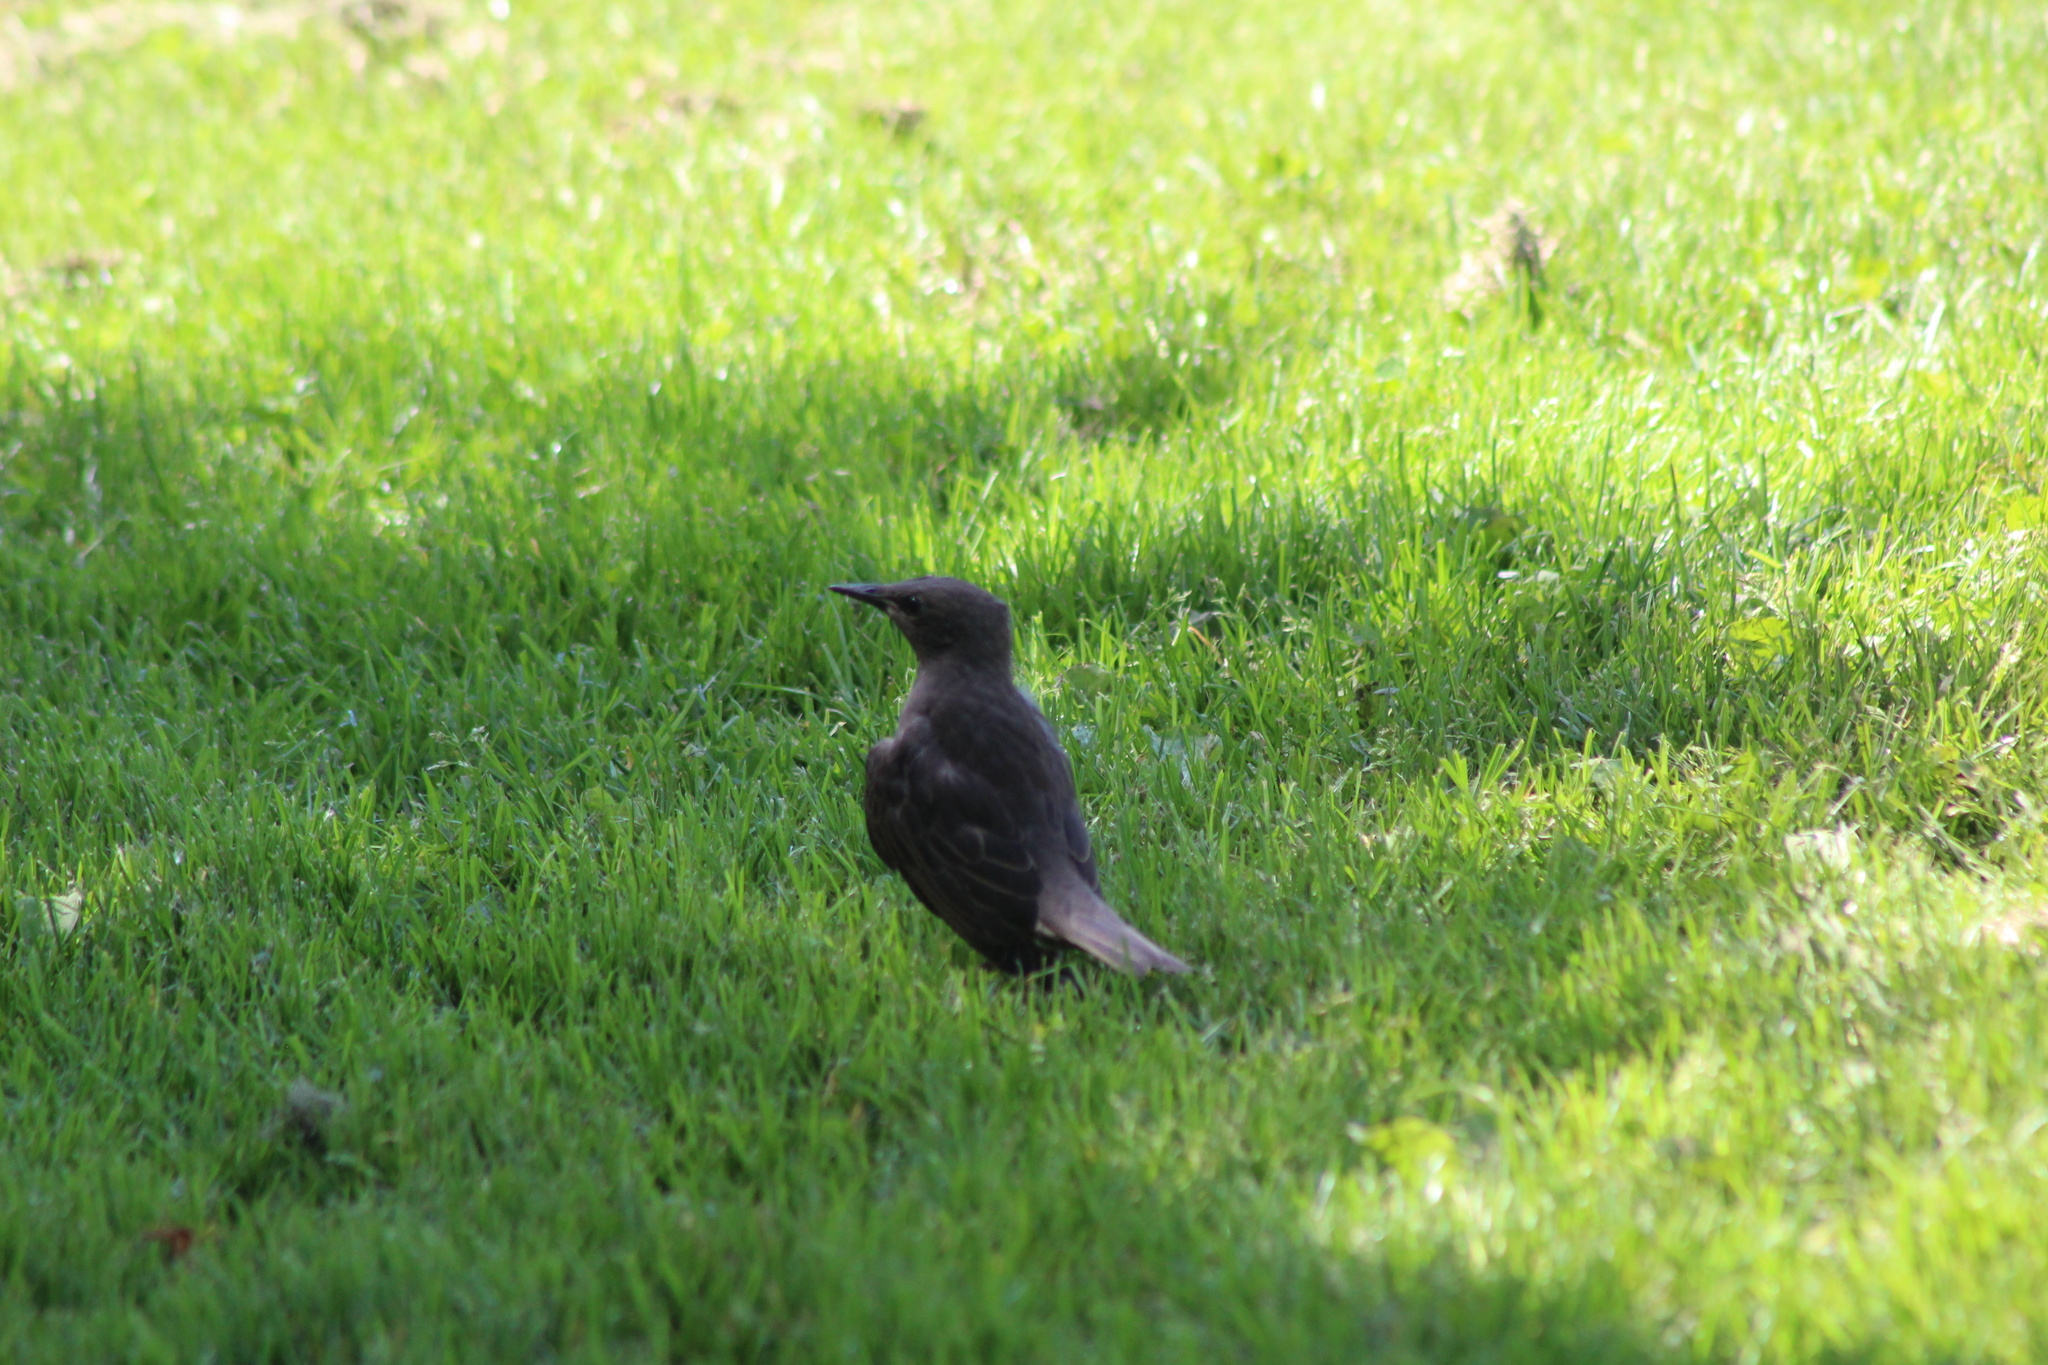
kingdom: Animalia
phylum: Chordata
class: Aves
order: Passeriformes
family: Sturnidae
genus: Sturnus
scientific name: Sturnus vulgaris
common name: Common starling
